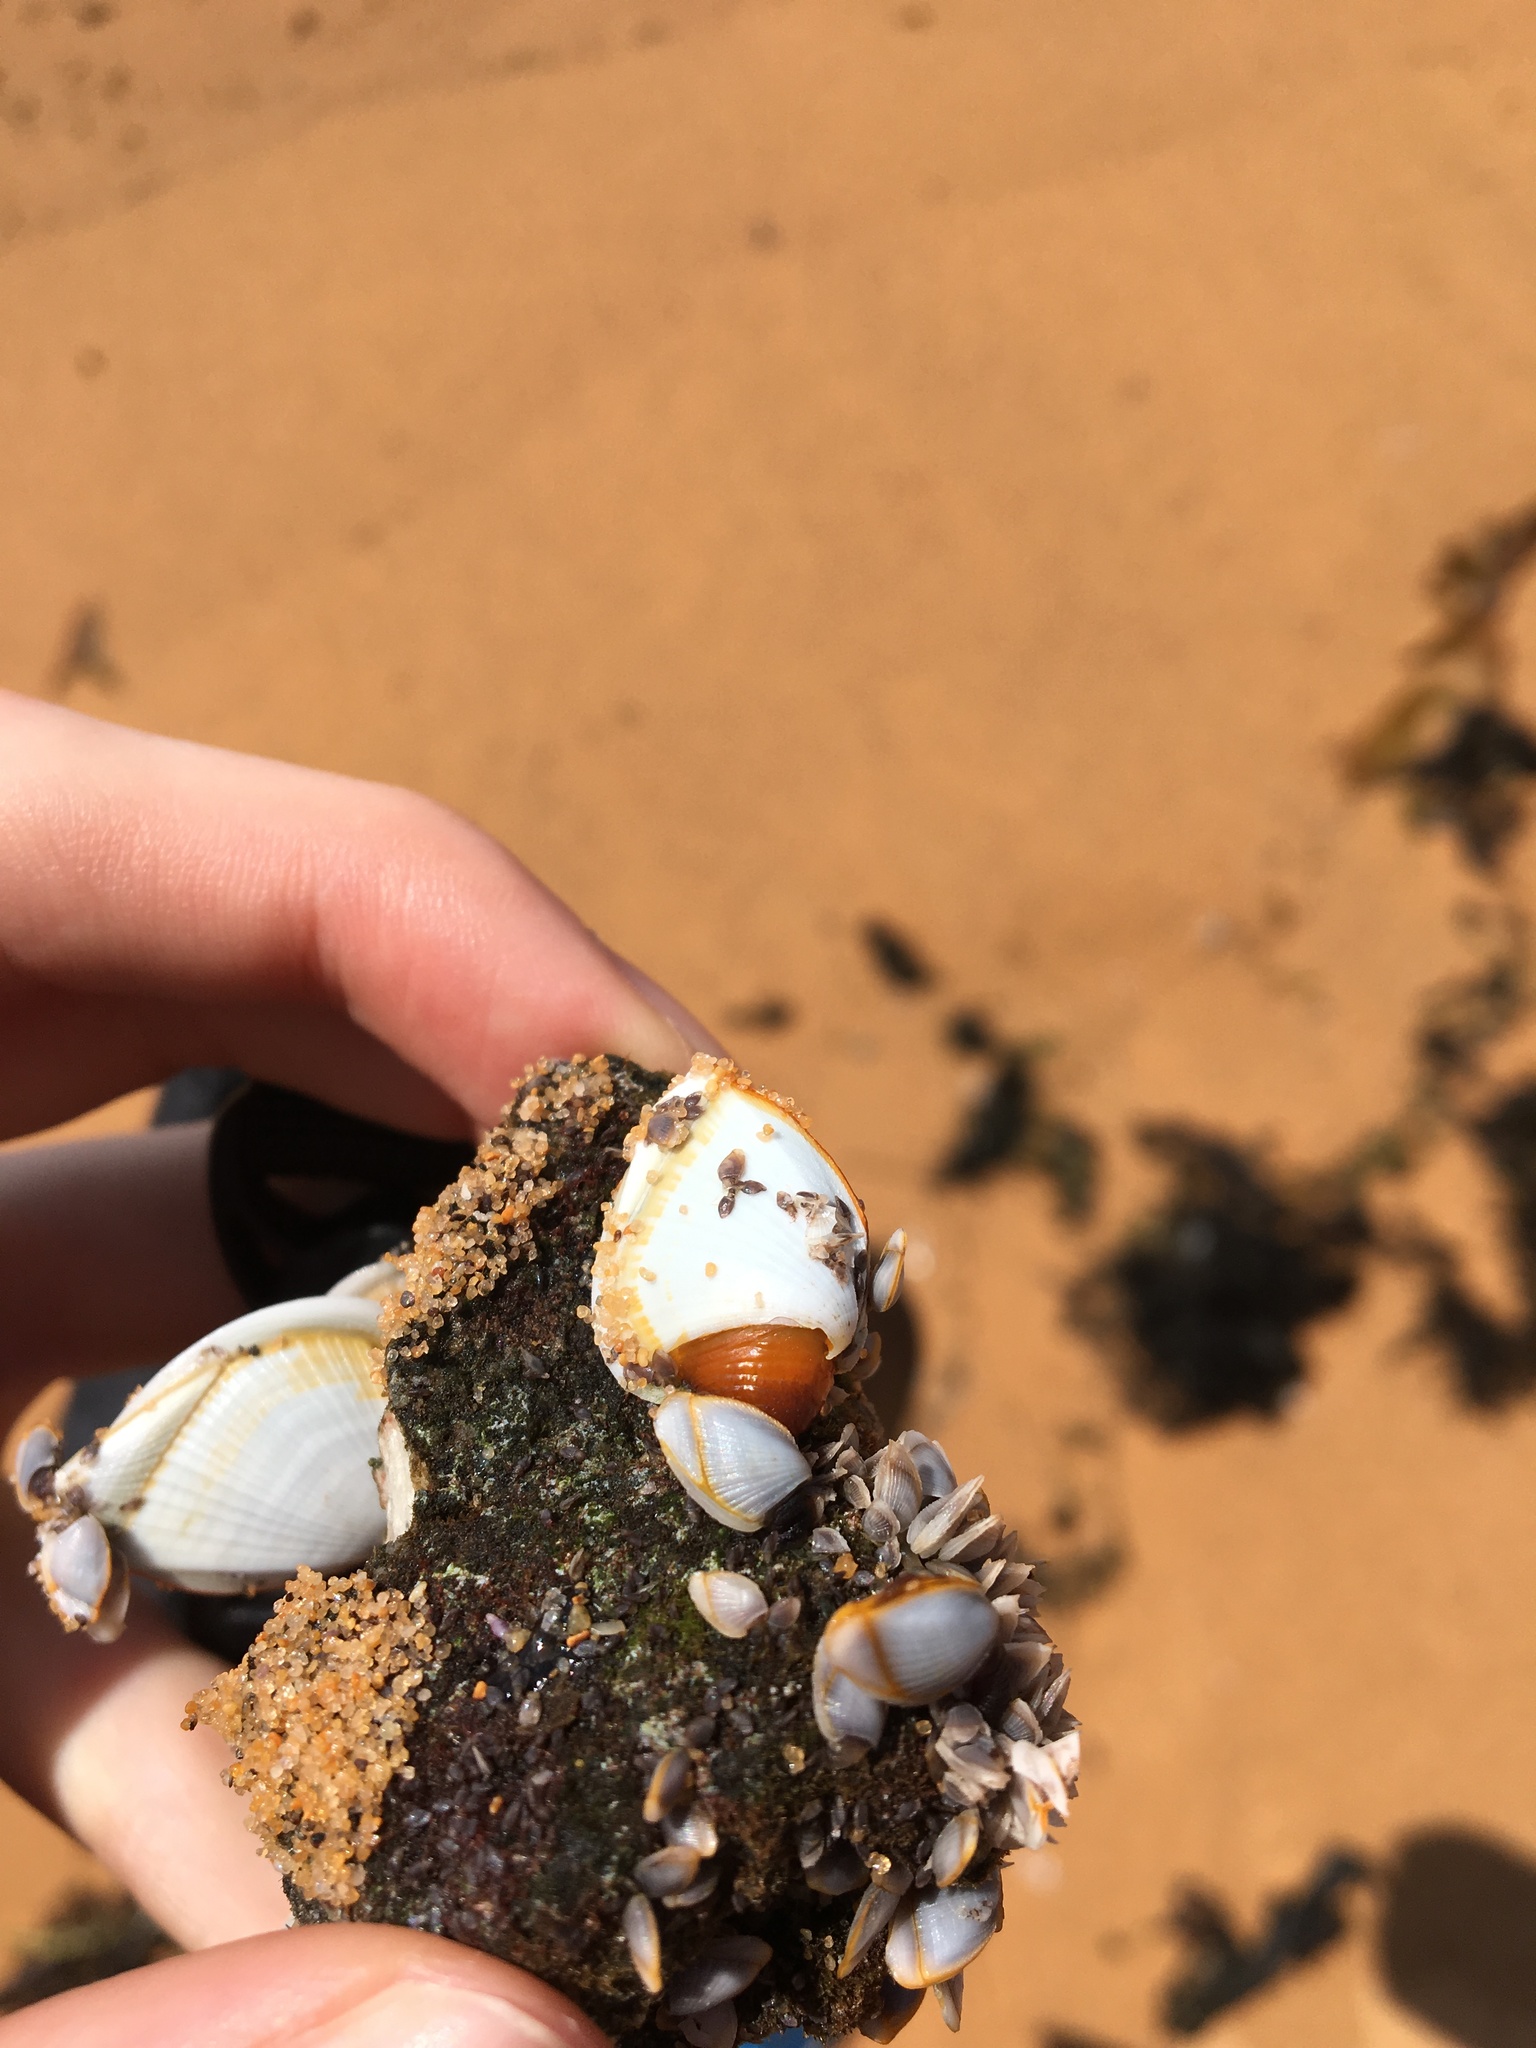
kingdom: Animalia
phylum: Arthropoda
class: Maxillopoda
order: Pedunculata
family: Lepadidae
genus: Lepas
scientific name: Lepas anserifera
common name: Goose barnacle
